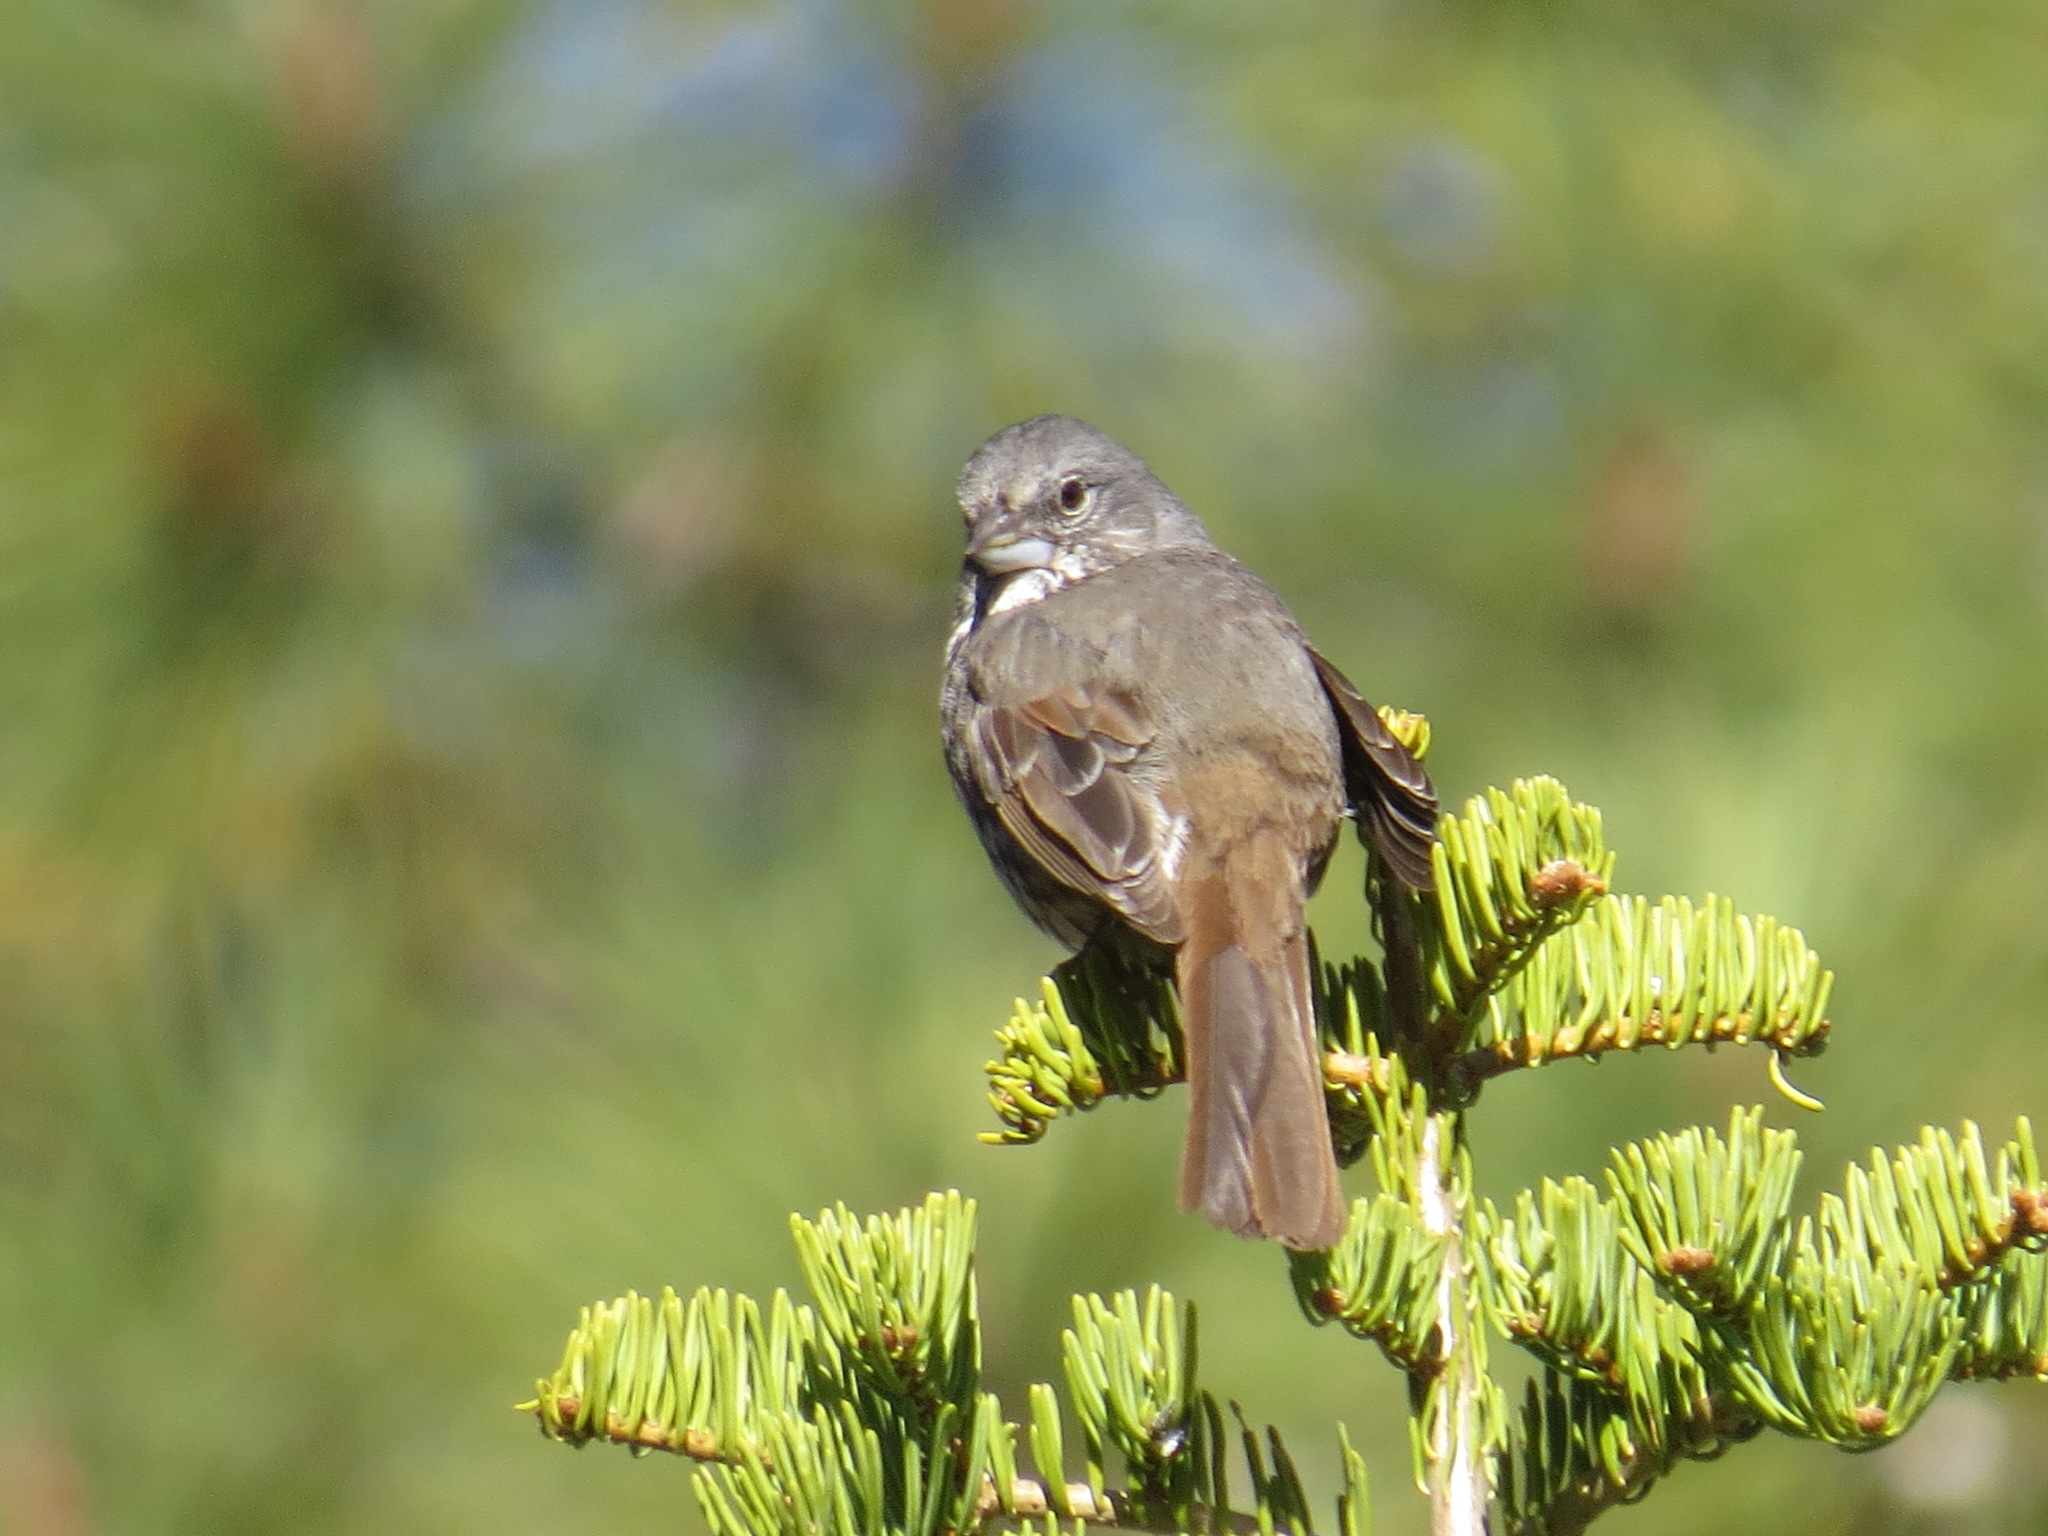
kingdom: Animalia
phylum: Chordata
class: Aves
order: Passeriformes
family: Passerellidae
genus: Passerella
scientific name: Passerella iliaca
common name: Fox sparrow
